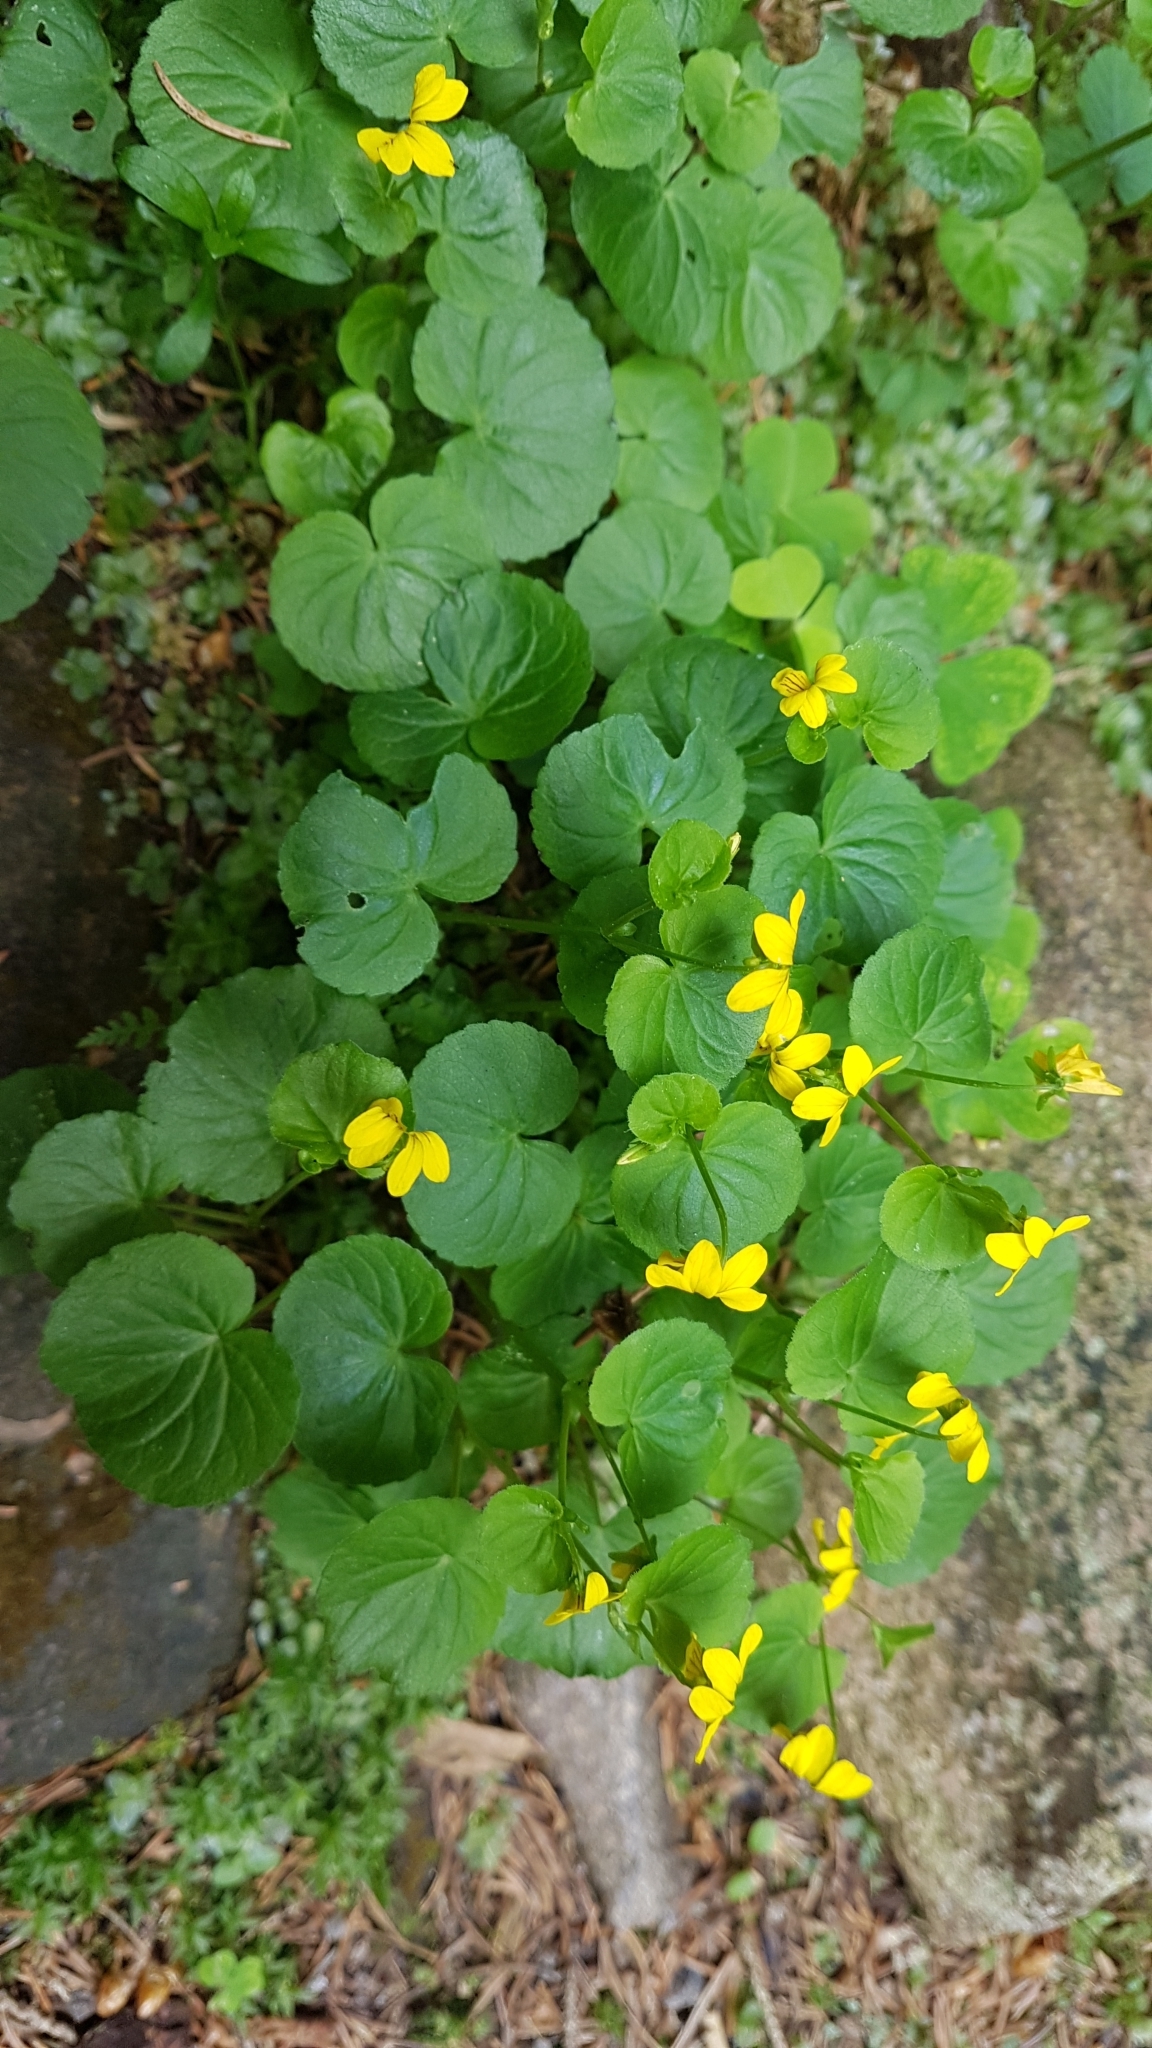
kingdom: Plantae
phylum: Tracheophyta
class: Magnoliopsida
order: Malpighiales
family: Violaceae
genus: Viola
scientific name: Viola biflora
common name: Alpine yellow violet
